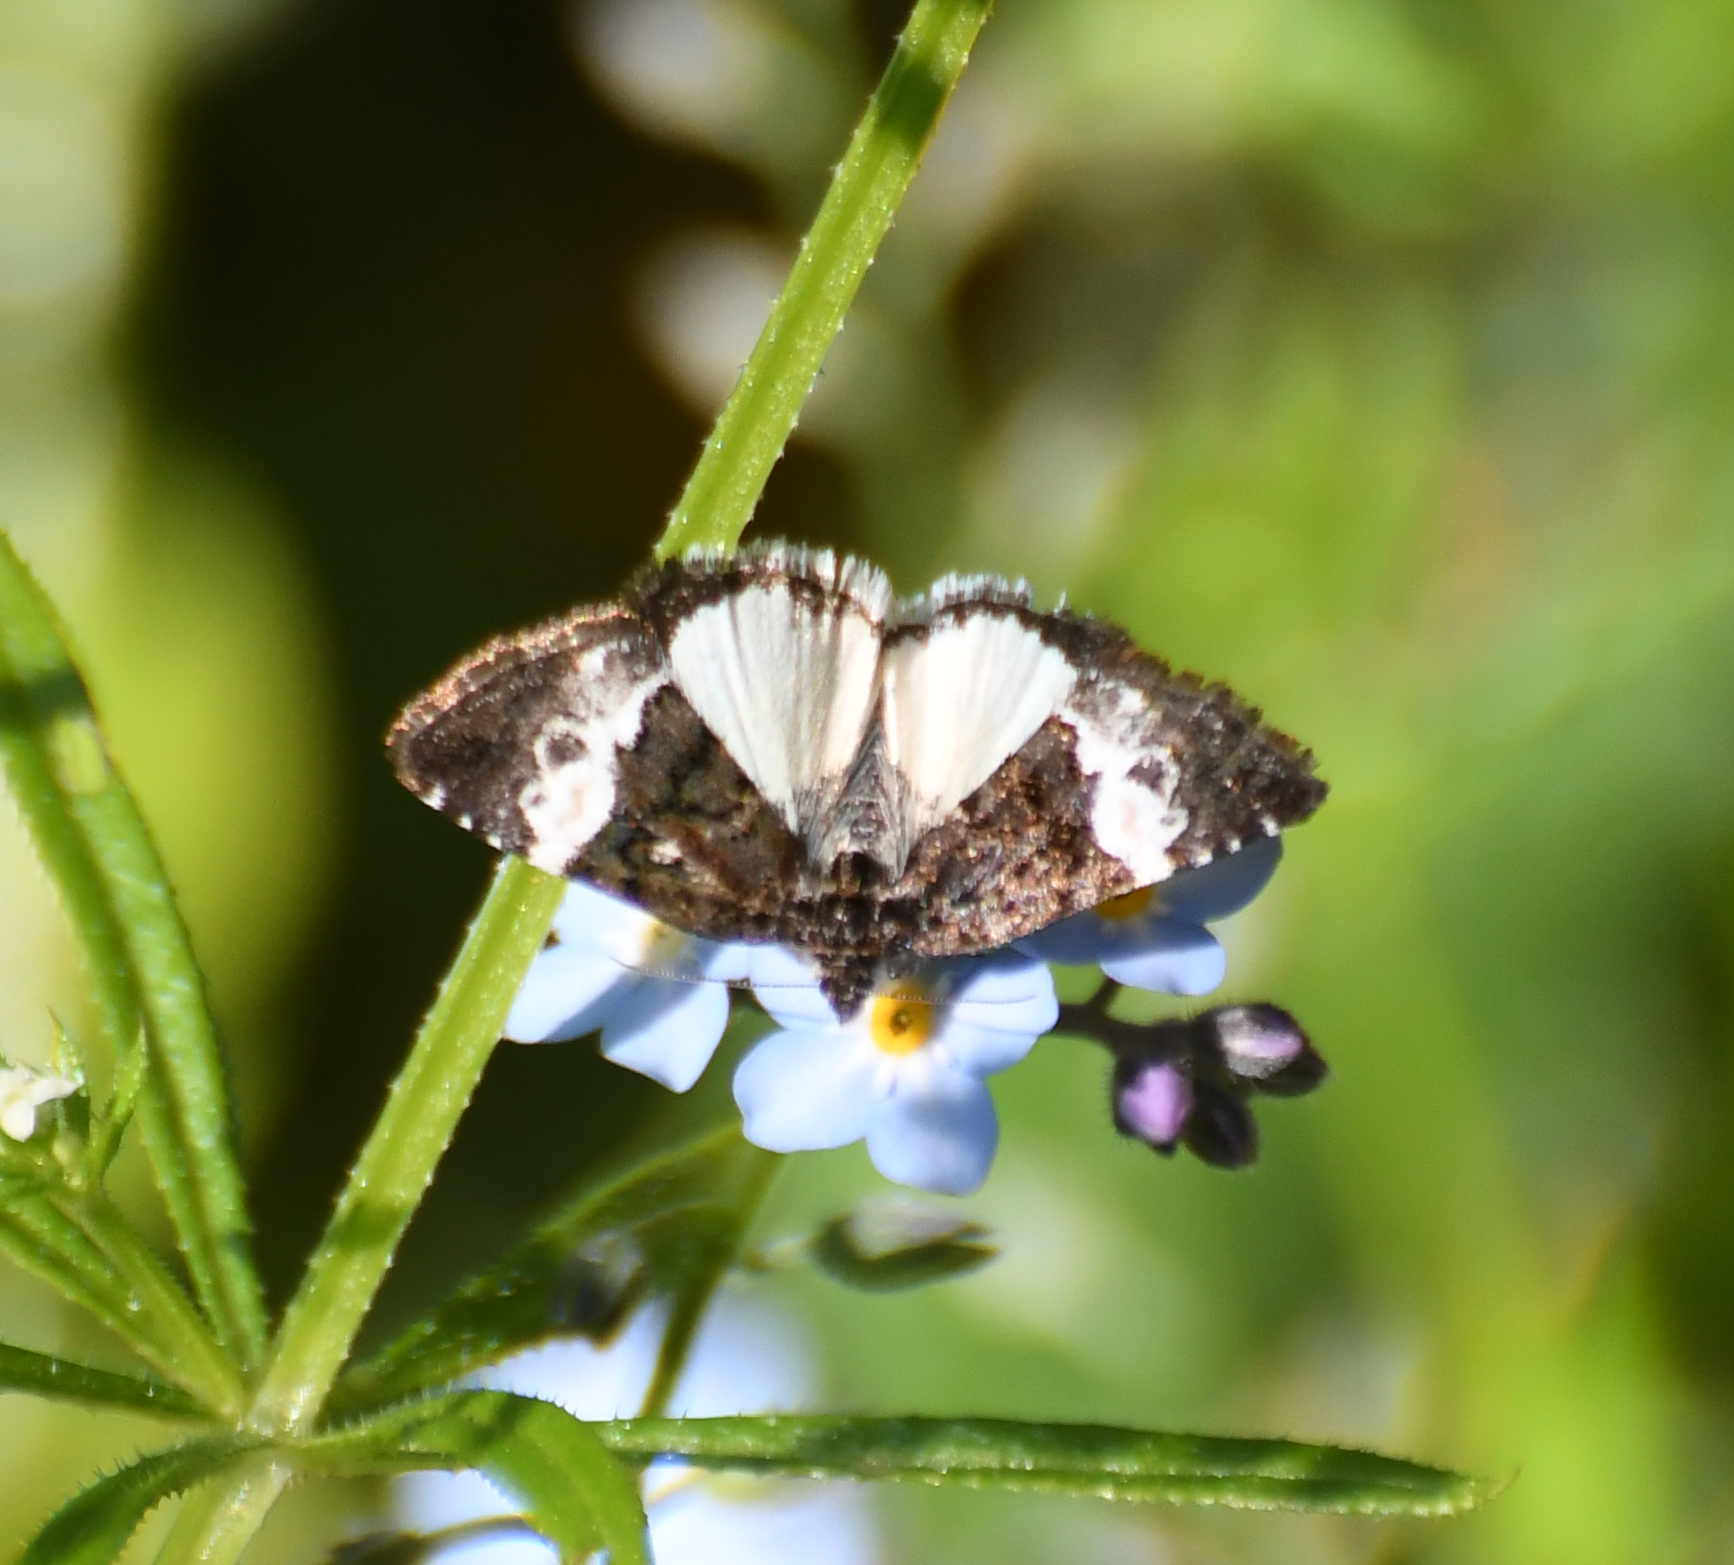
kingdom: Animalia
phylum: Arthropoda
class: Insecta
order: Lepidoptera
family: Noctuidae
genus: Annaphila
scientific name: Annaphila diva
